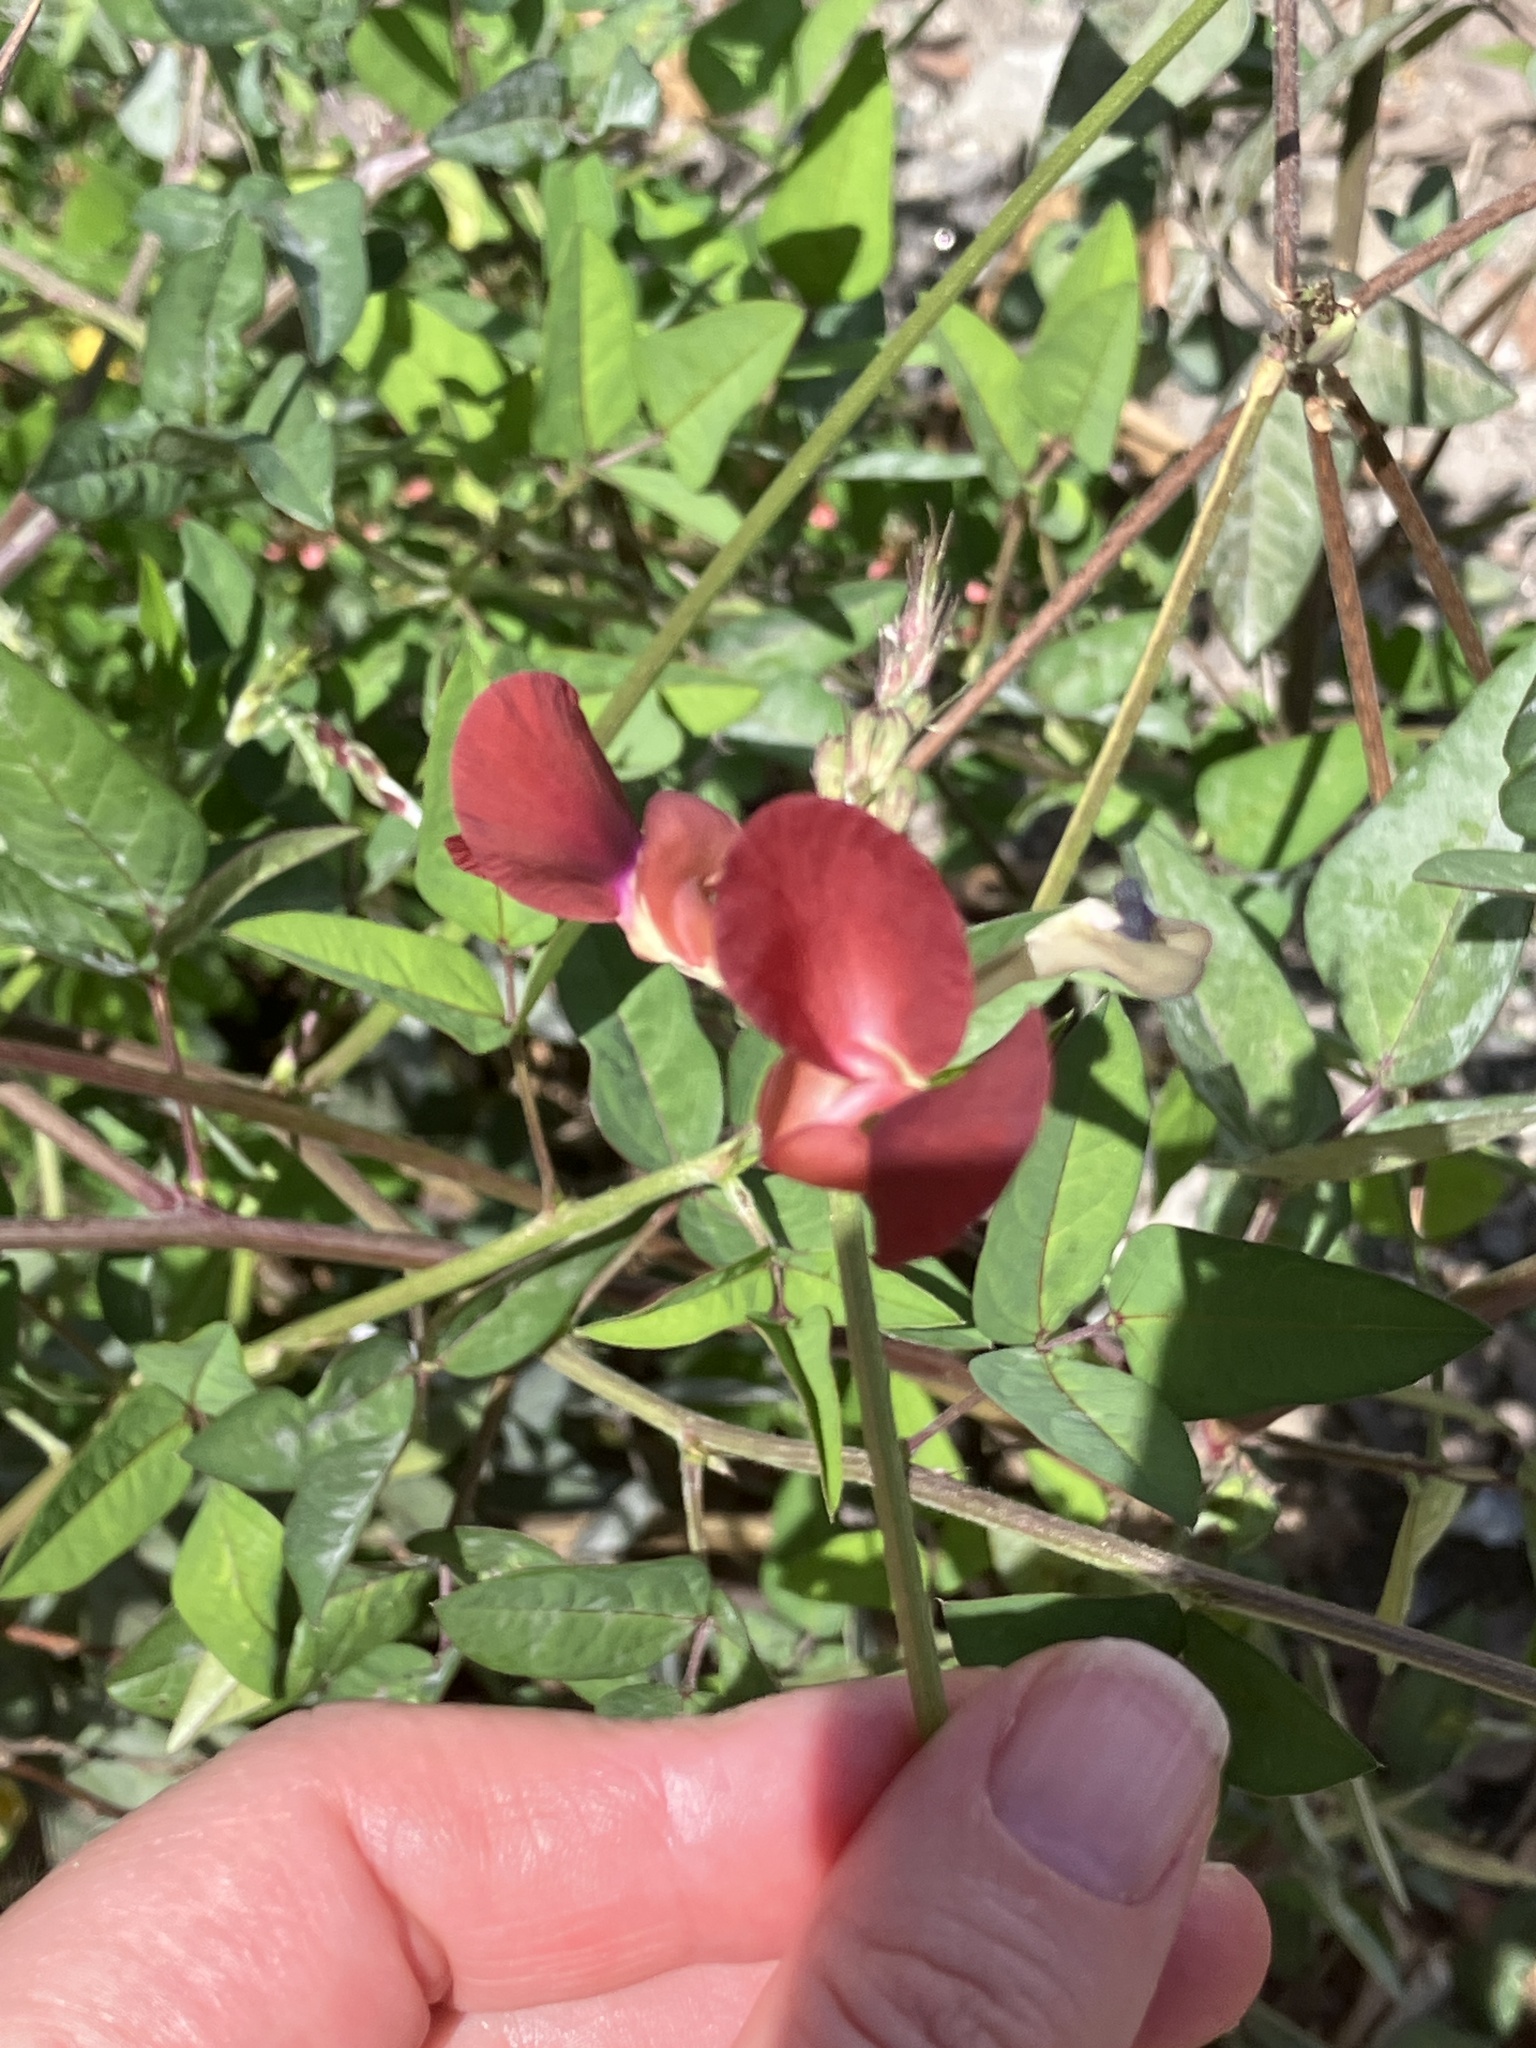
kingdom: Plantae
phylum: Tracheophyta
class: Magnoliopsida
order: Fabales
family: Fabaceae
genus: Macroptilium
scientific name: Macroptilium lathyroides
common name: Wild bushbean
